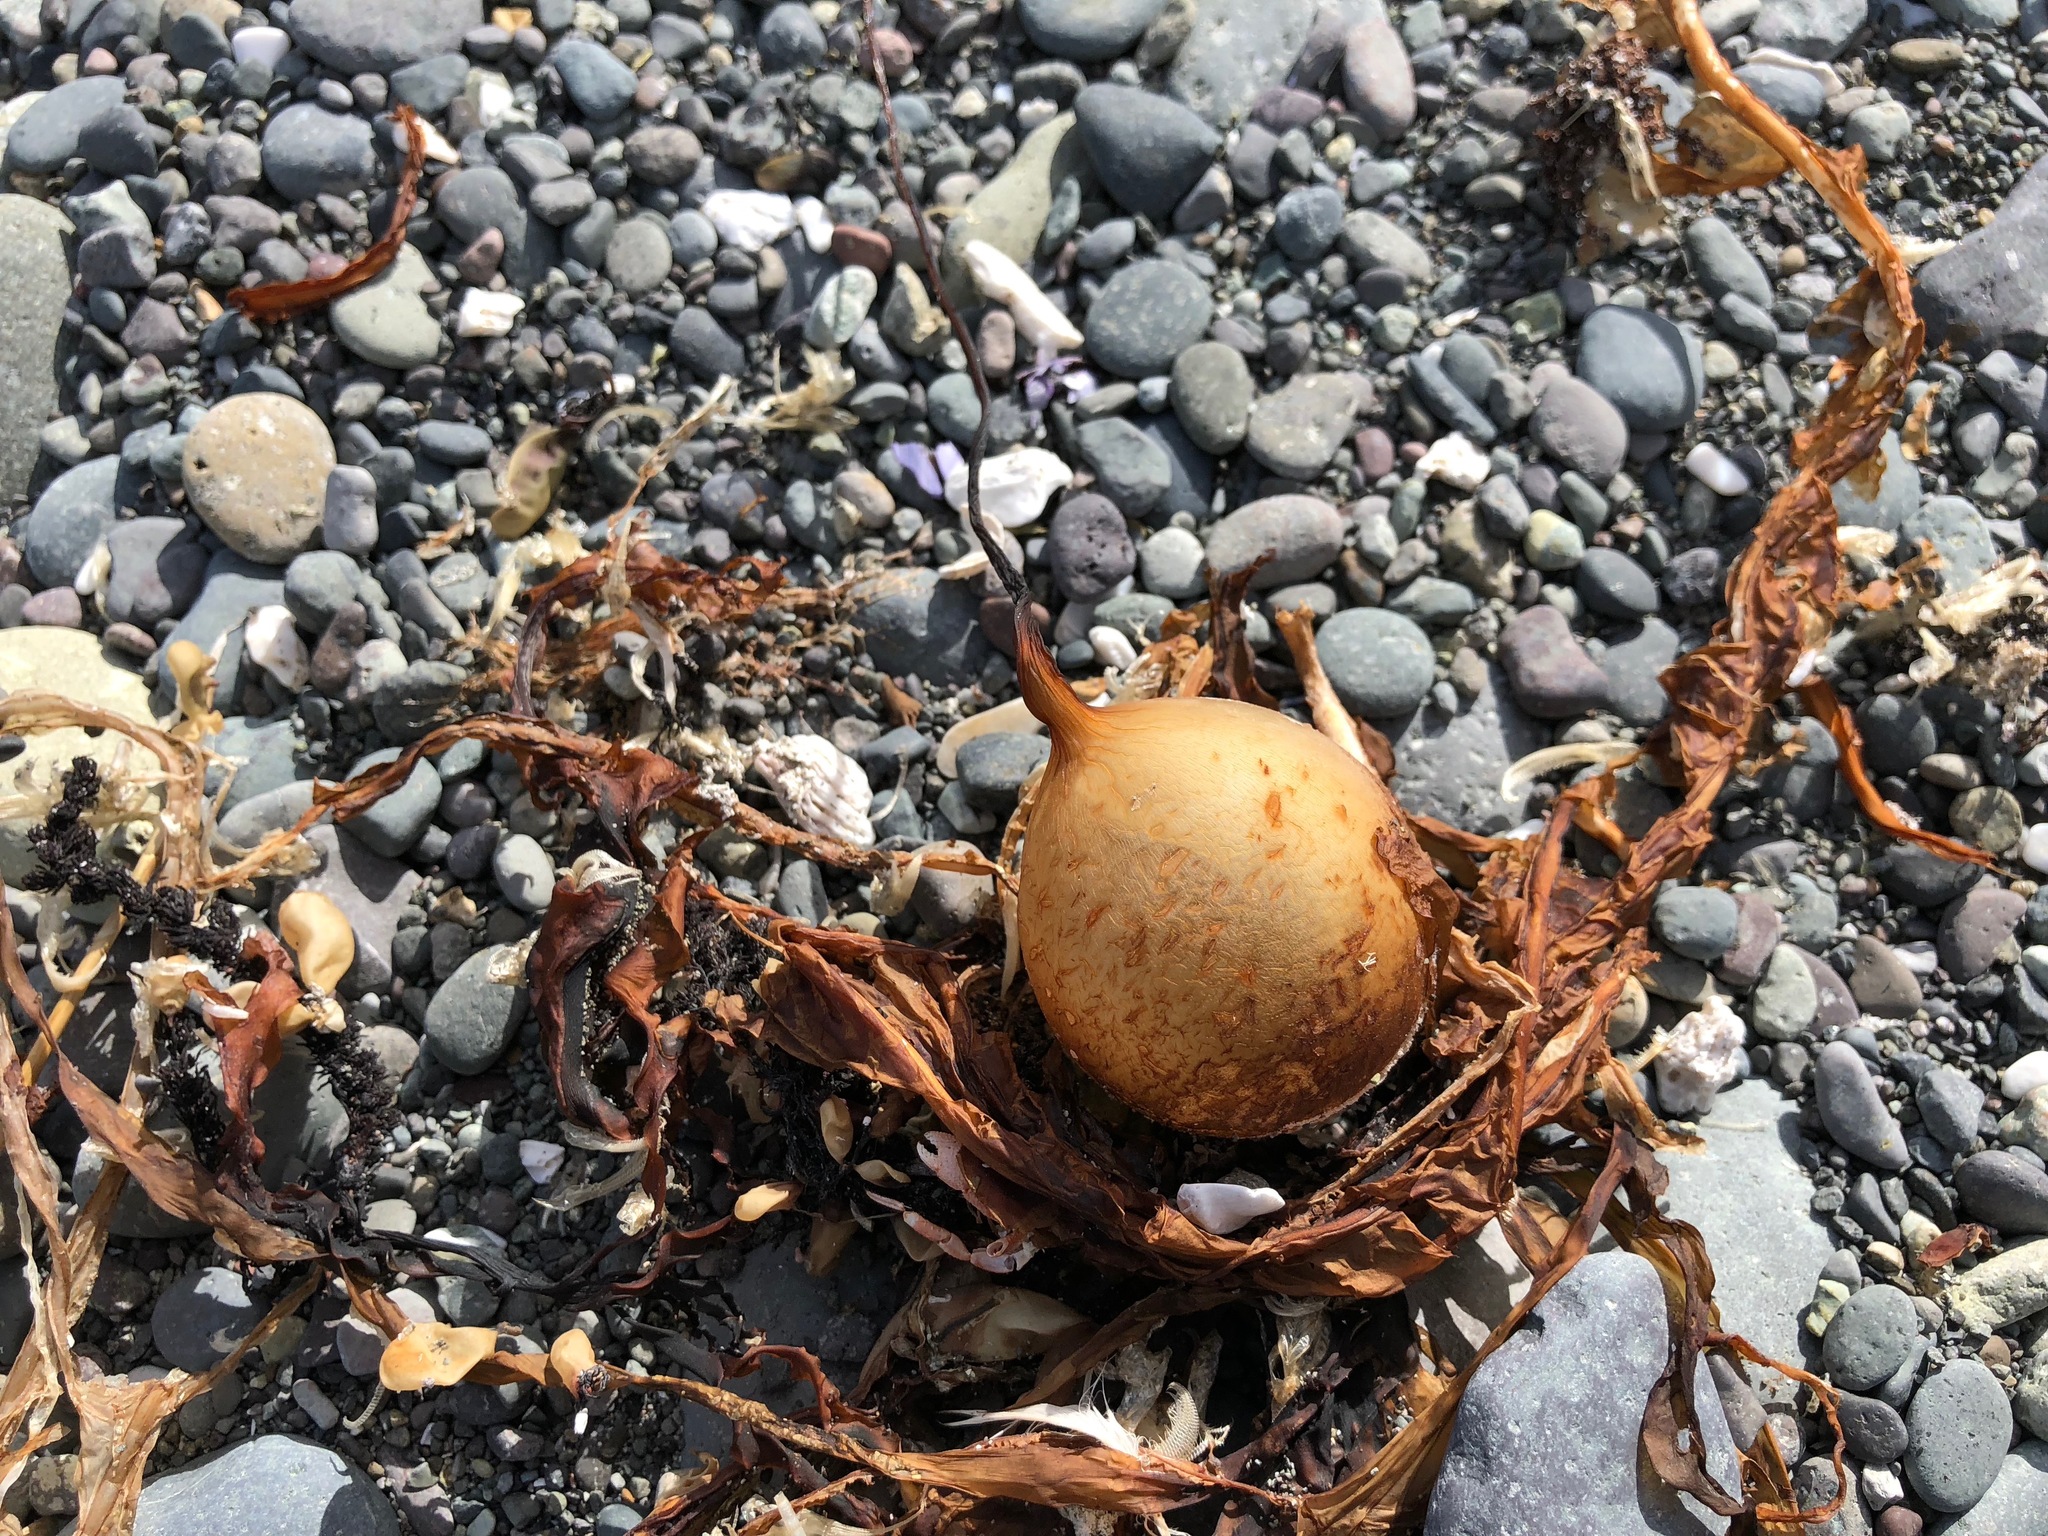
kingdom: Chromista
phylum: Ochrophyta
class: Phaeophyceae
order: Laminariales
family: Laminariaceae
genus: Nereocystis
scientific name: Nereocystis luetkeana
